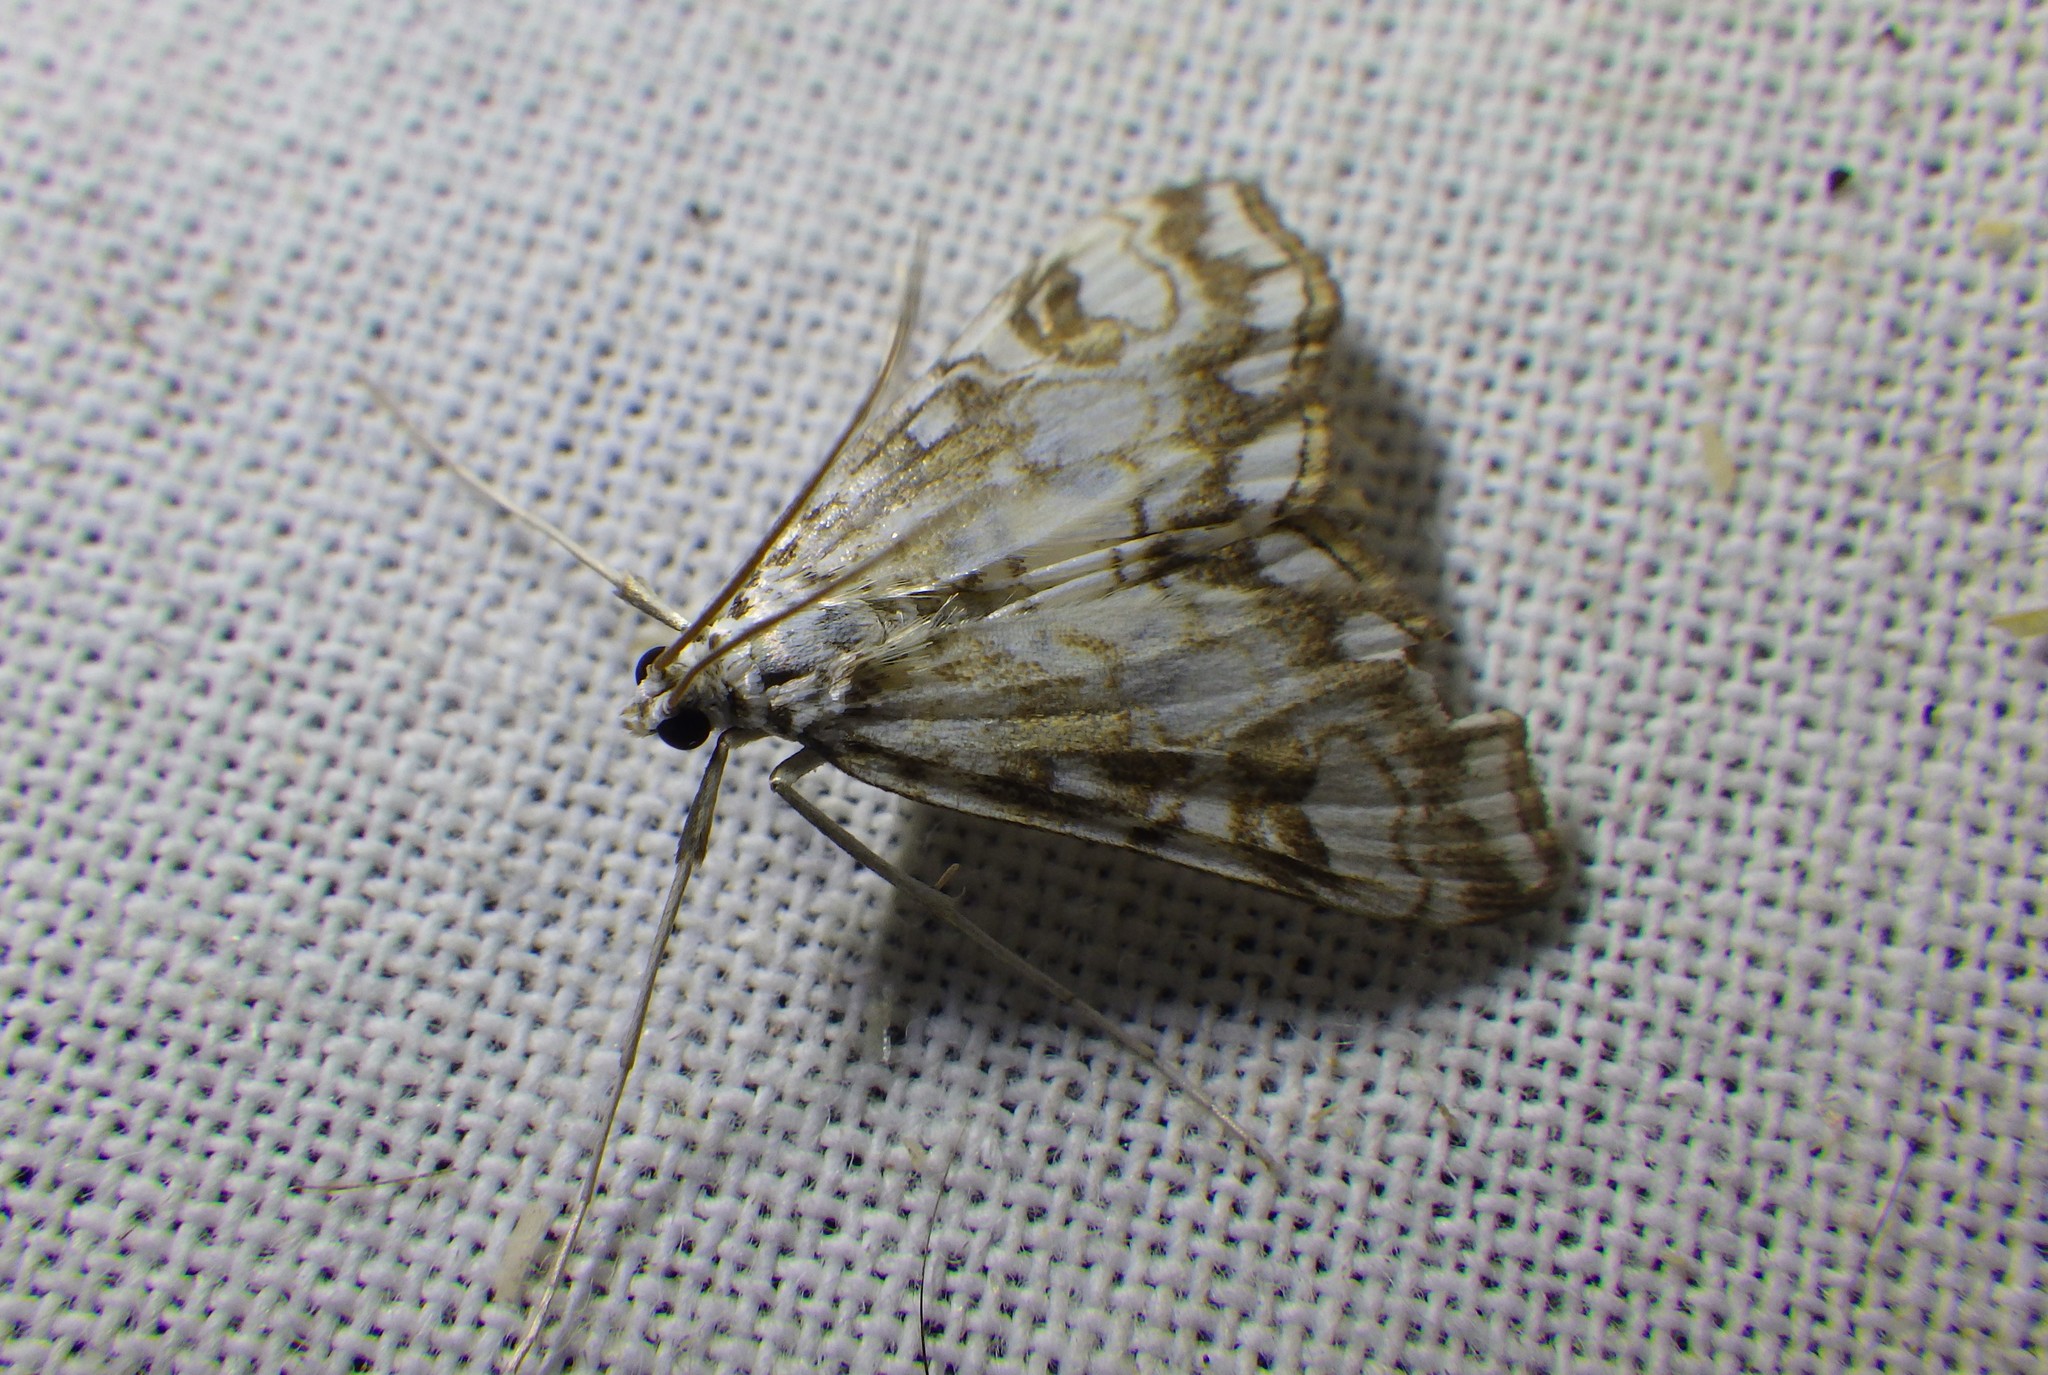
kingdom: Animalia
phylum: Arthropoda
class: Insecta
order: Lepidoptera
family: Crambidae
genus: Elophila
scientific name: Elophila nymphaeata
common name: Brown china-mark
